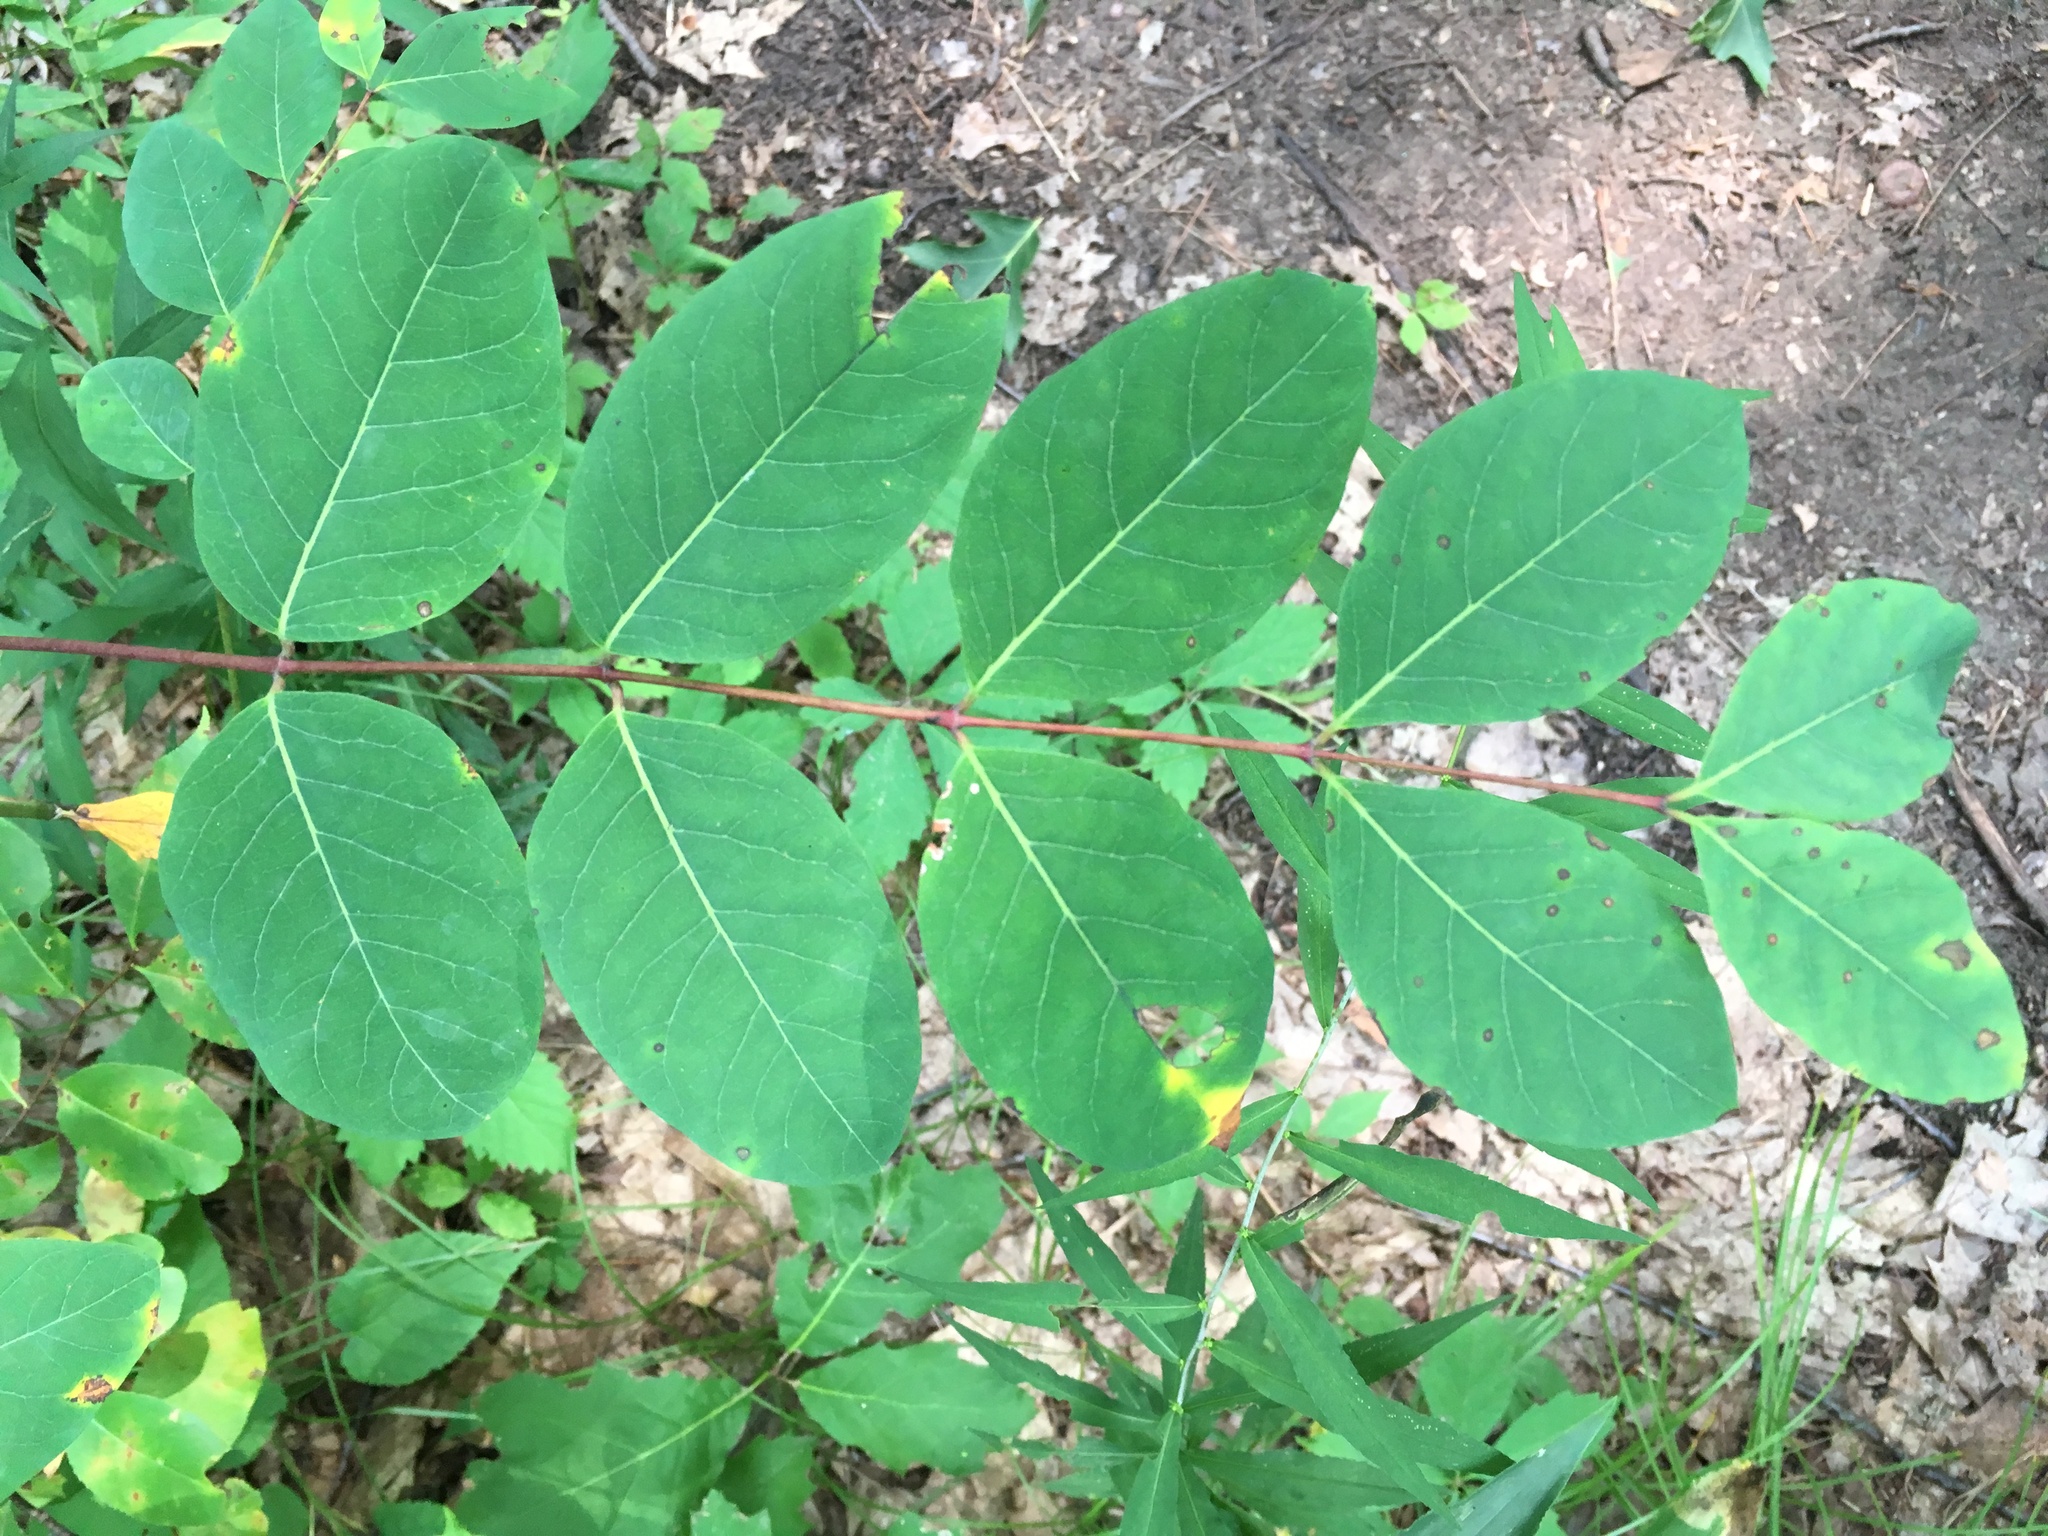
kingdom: Plantae
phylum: Tracheophyta
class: Magnoliopsida
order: Gentianales
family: Apocynaceae
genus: Apocynum
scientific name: Apocynum androsaemifolium
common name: Spreading dogbane
